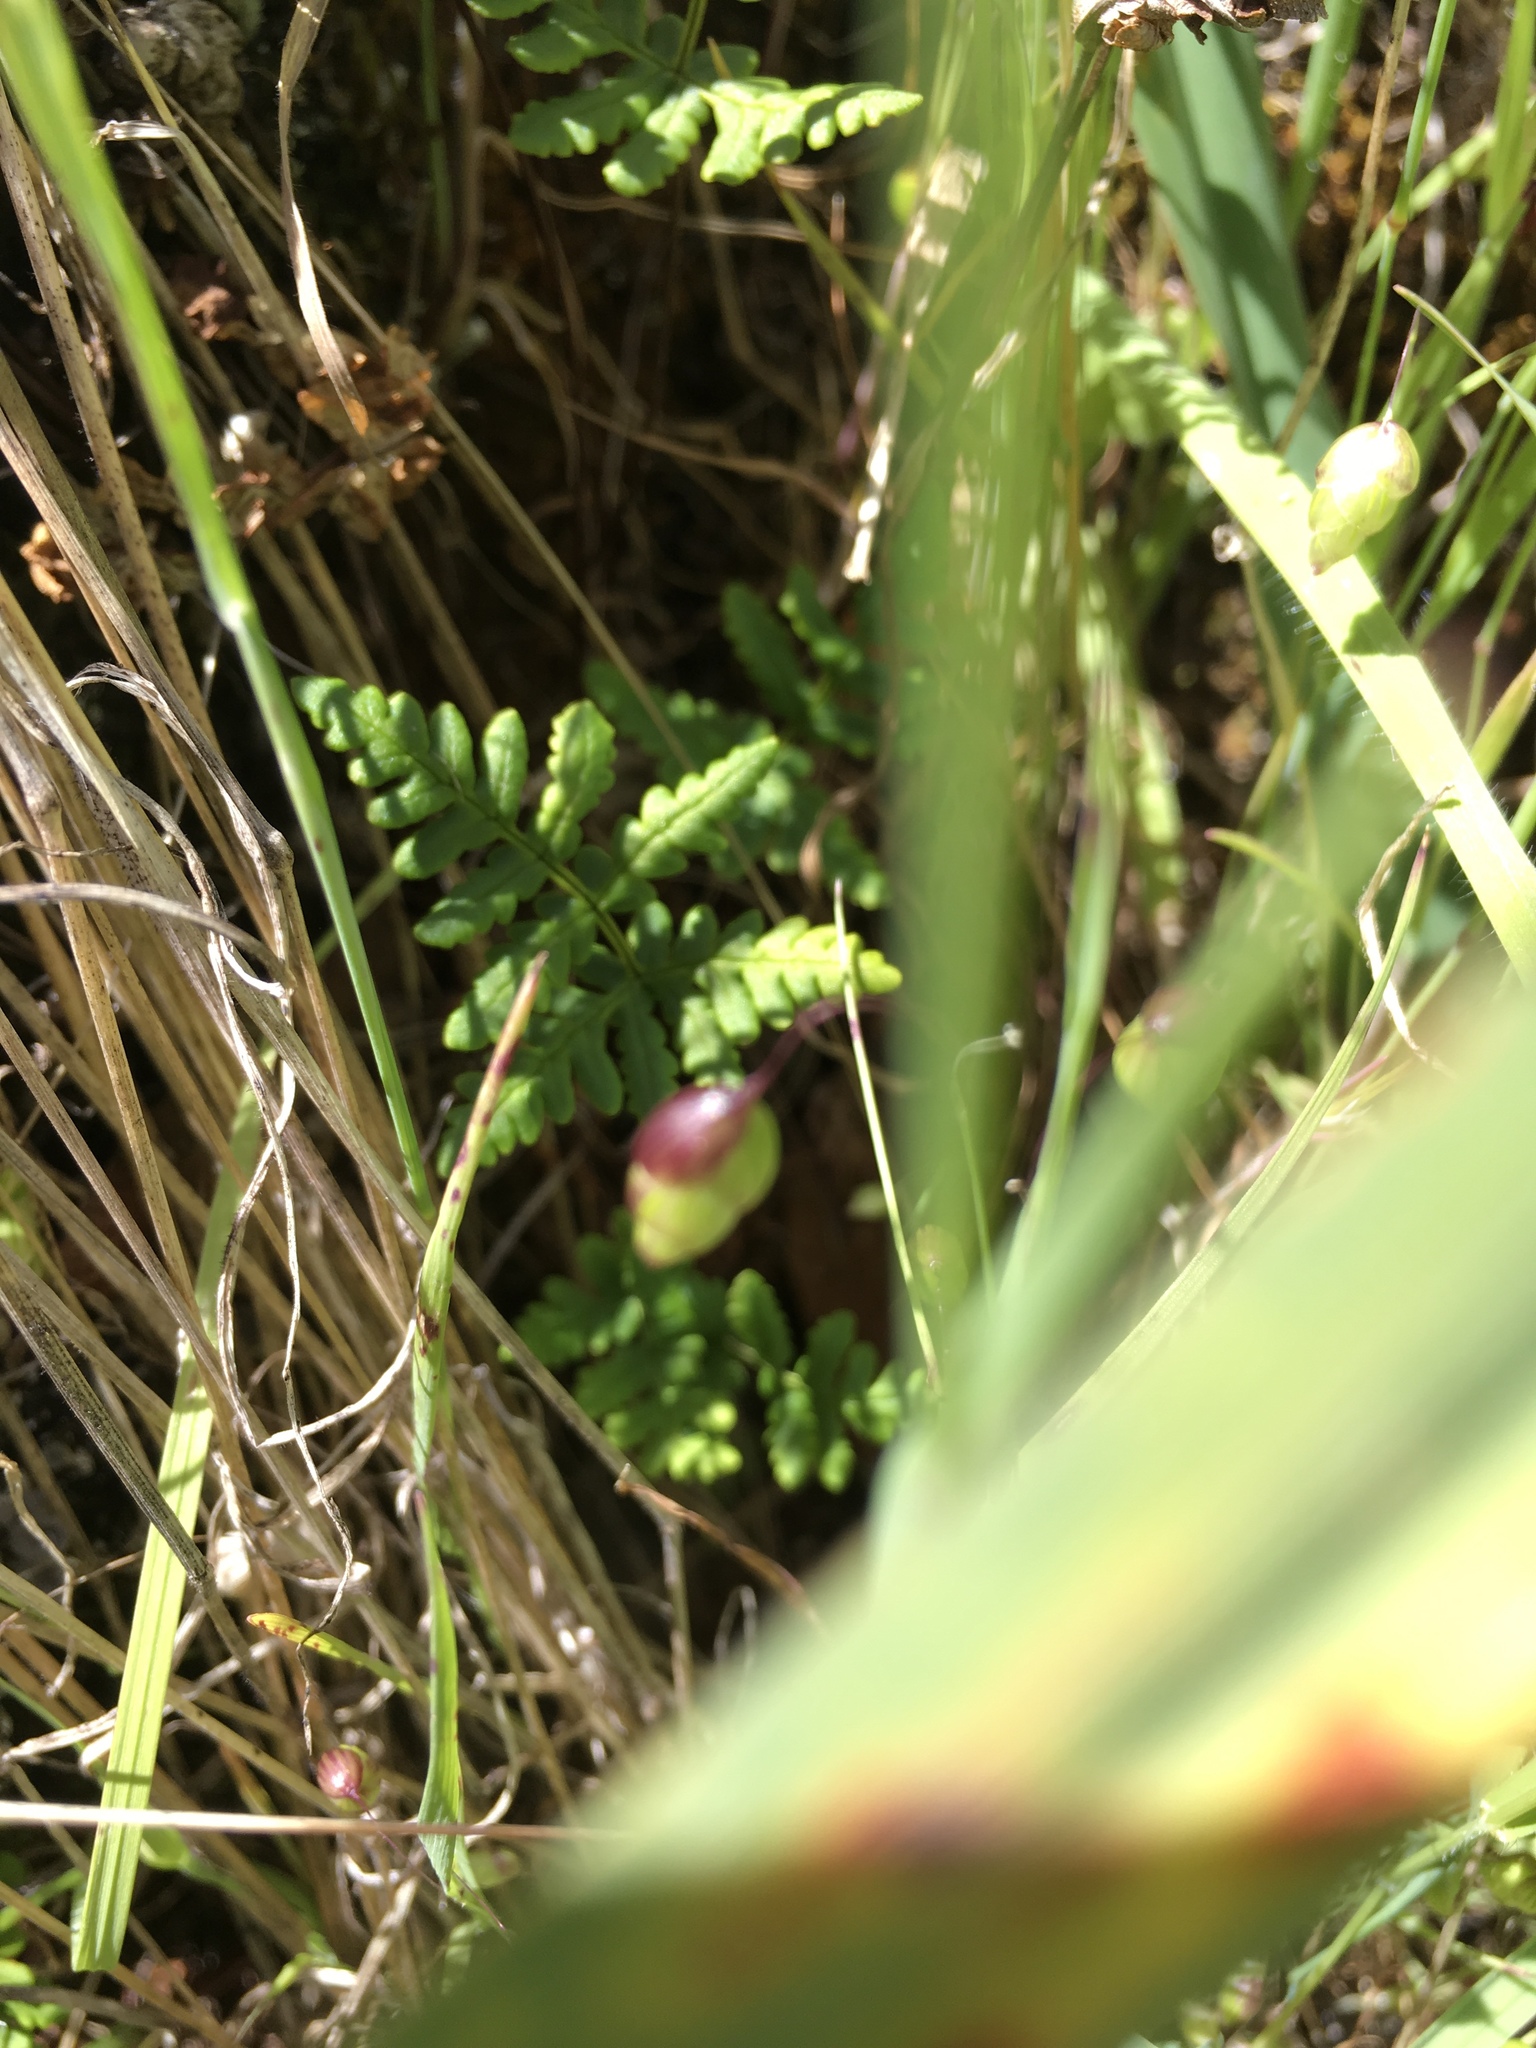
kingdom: Plantae
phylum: Tracheophyta
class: Liliopsida
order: Poales
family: Poaceae
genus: Briza
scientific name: Briza maxima
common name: Big quakinggrass
